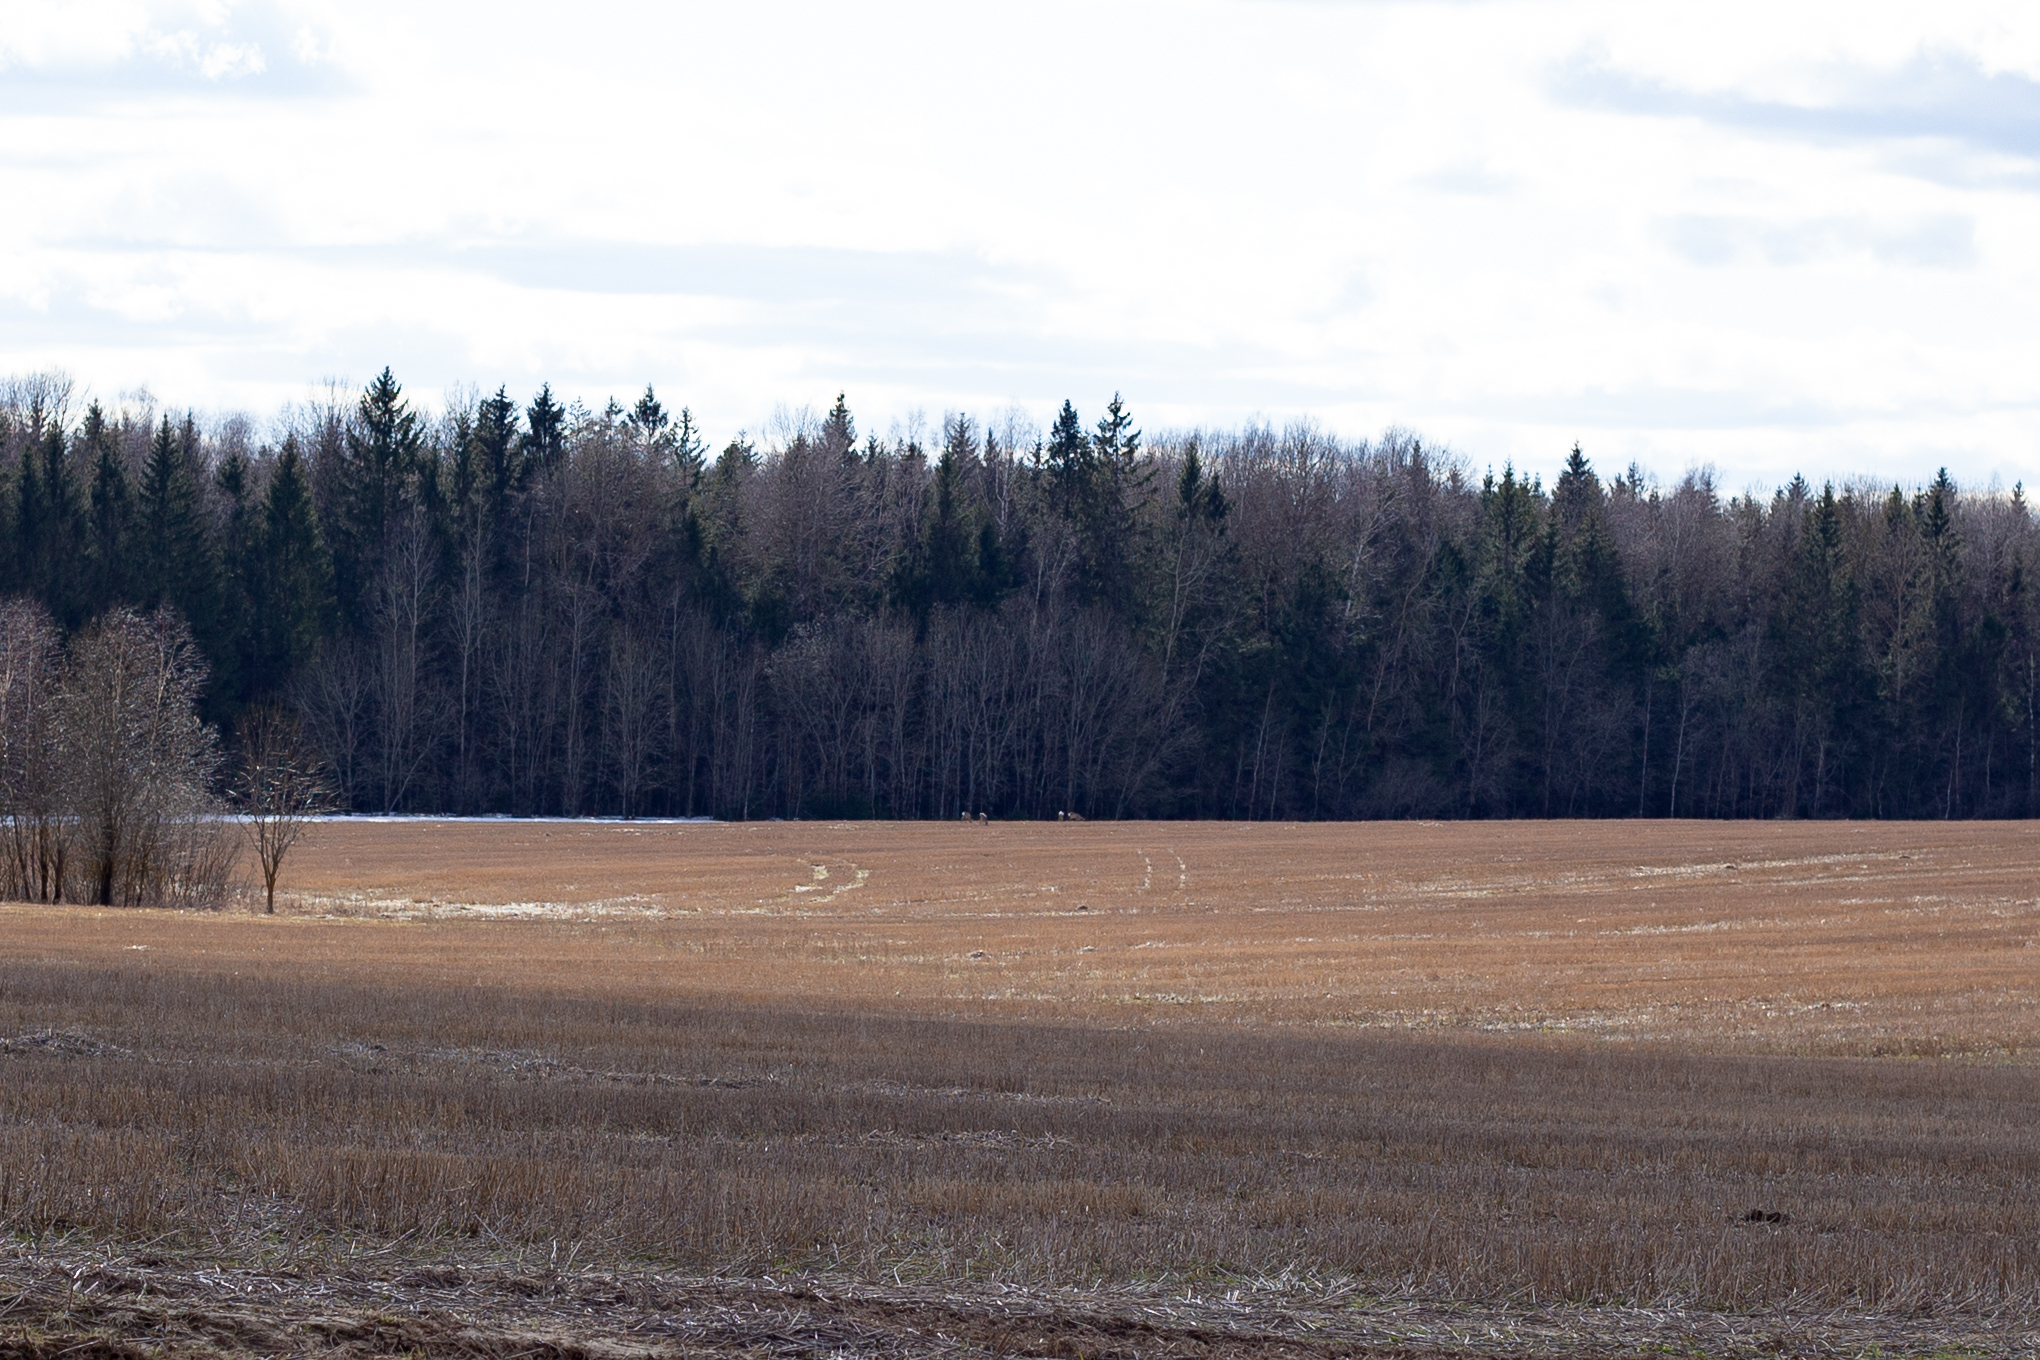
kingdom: Animalia
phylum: Chordata
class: Mammalia
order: Artiodactyla
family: Cervidae
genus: Capreolus
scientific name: Capreolus capreolus
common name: Western roe deer
